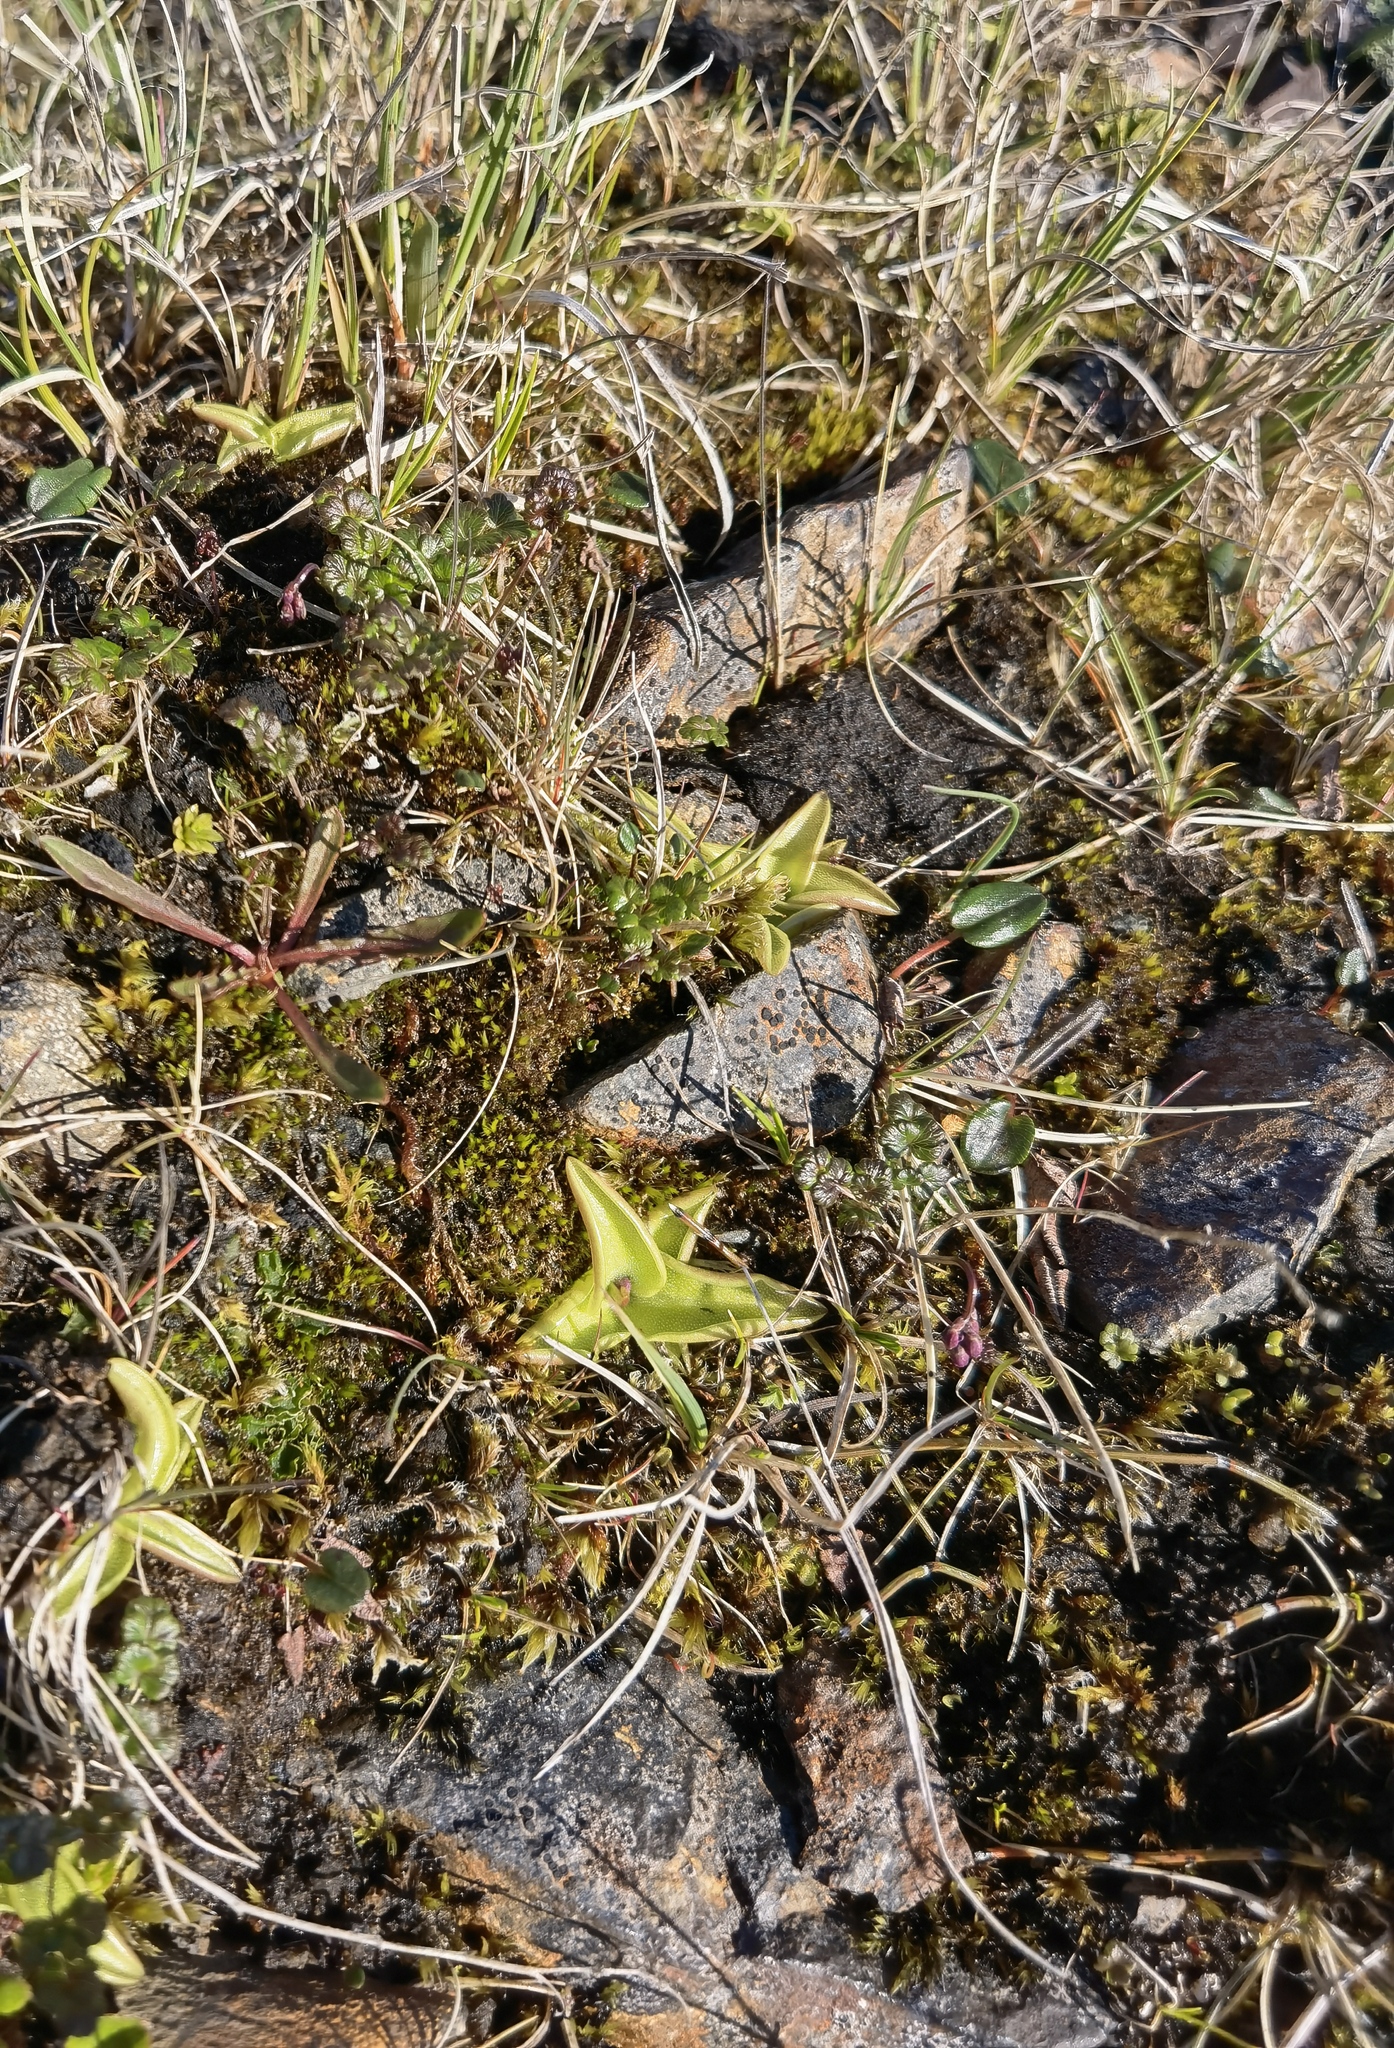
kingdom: Plantae
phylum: Tracheophyta
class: Magnoliopsida
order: Lamiales
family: Lentibulariaceae
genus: Pinguicula
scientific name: Pinguicula vulgaris
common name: Common butterwort
